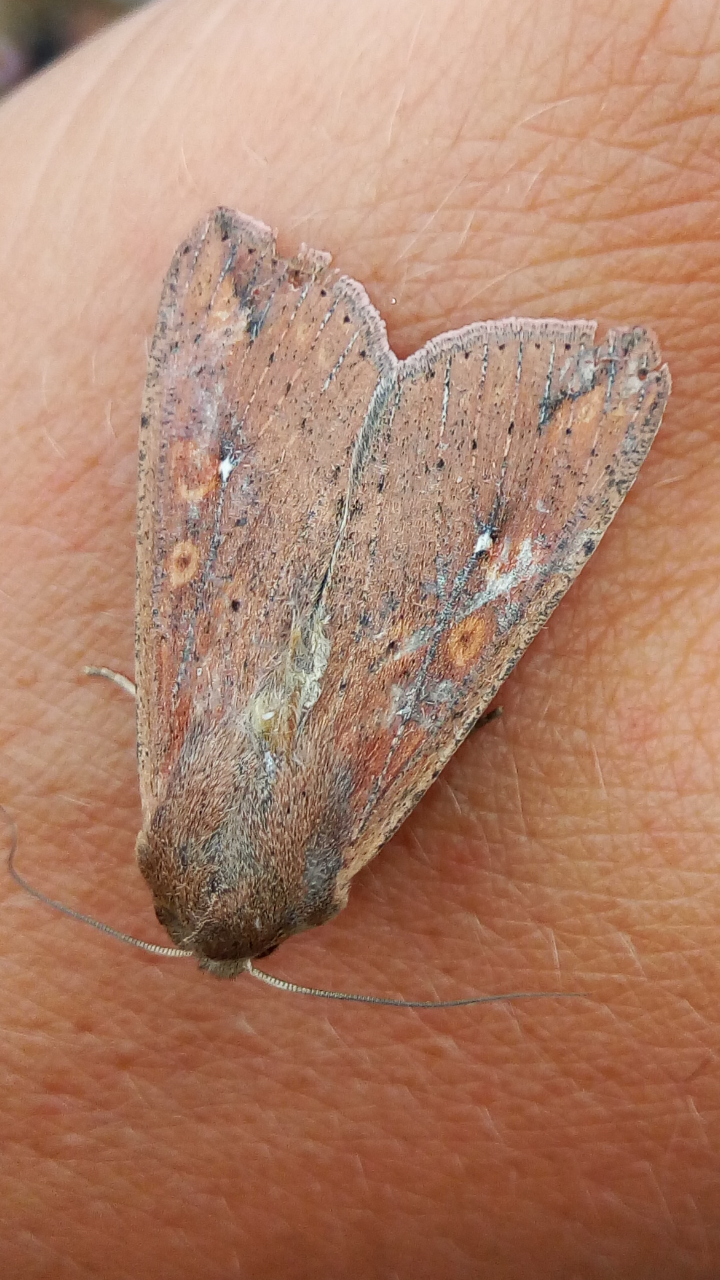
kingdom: Animalia
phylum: Arthropoda
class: Insecta
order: Lepidoptera
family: Noctuidae
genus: Mythimna
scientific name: Mythimna unipuncta
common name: White-speck
